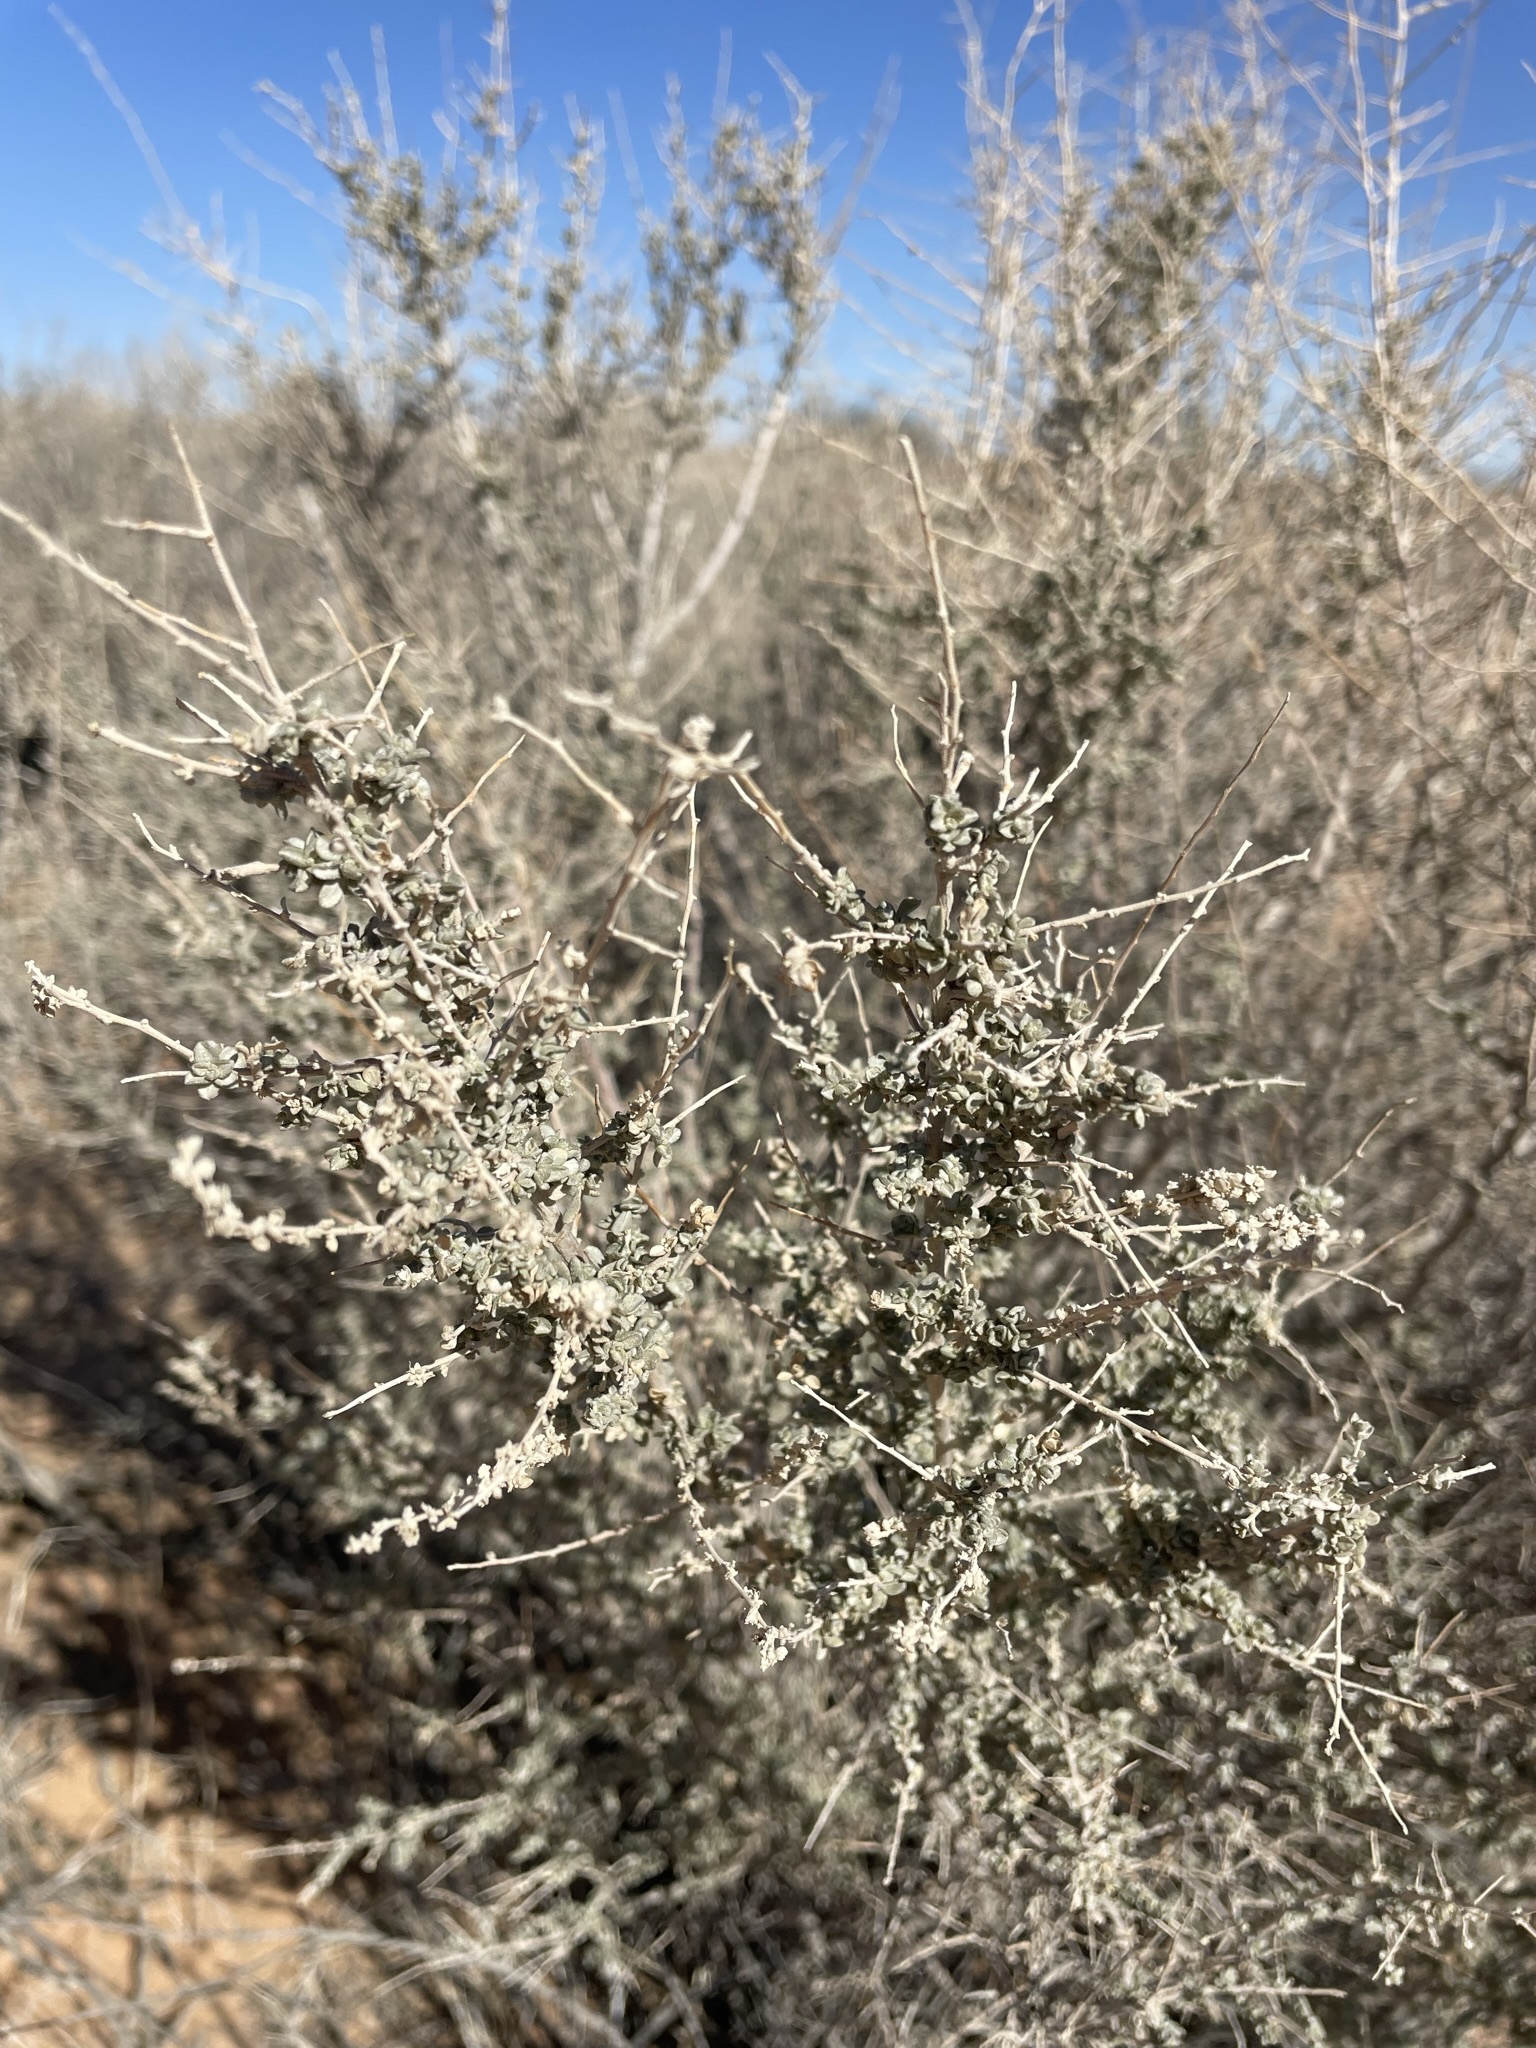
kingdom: Plantae
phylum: Tracheophyta
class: Magnoliopsida
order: Caryophyllales
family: Amaranthaceae
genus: Atriplex
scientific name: Atriplex polycarpa
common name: Desert saltbush
